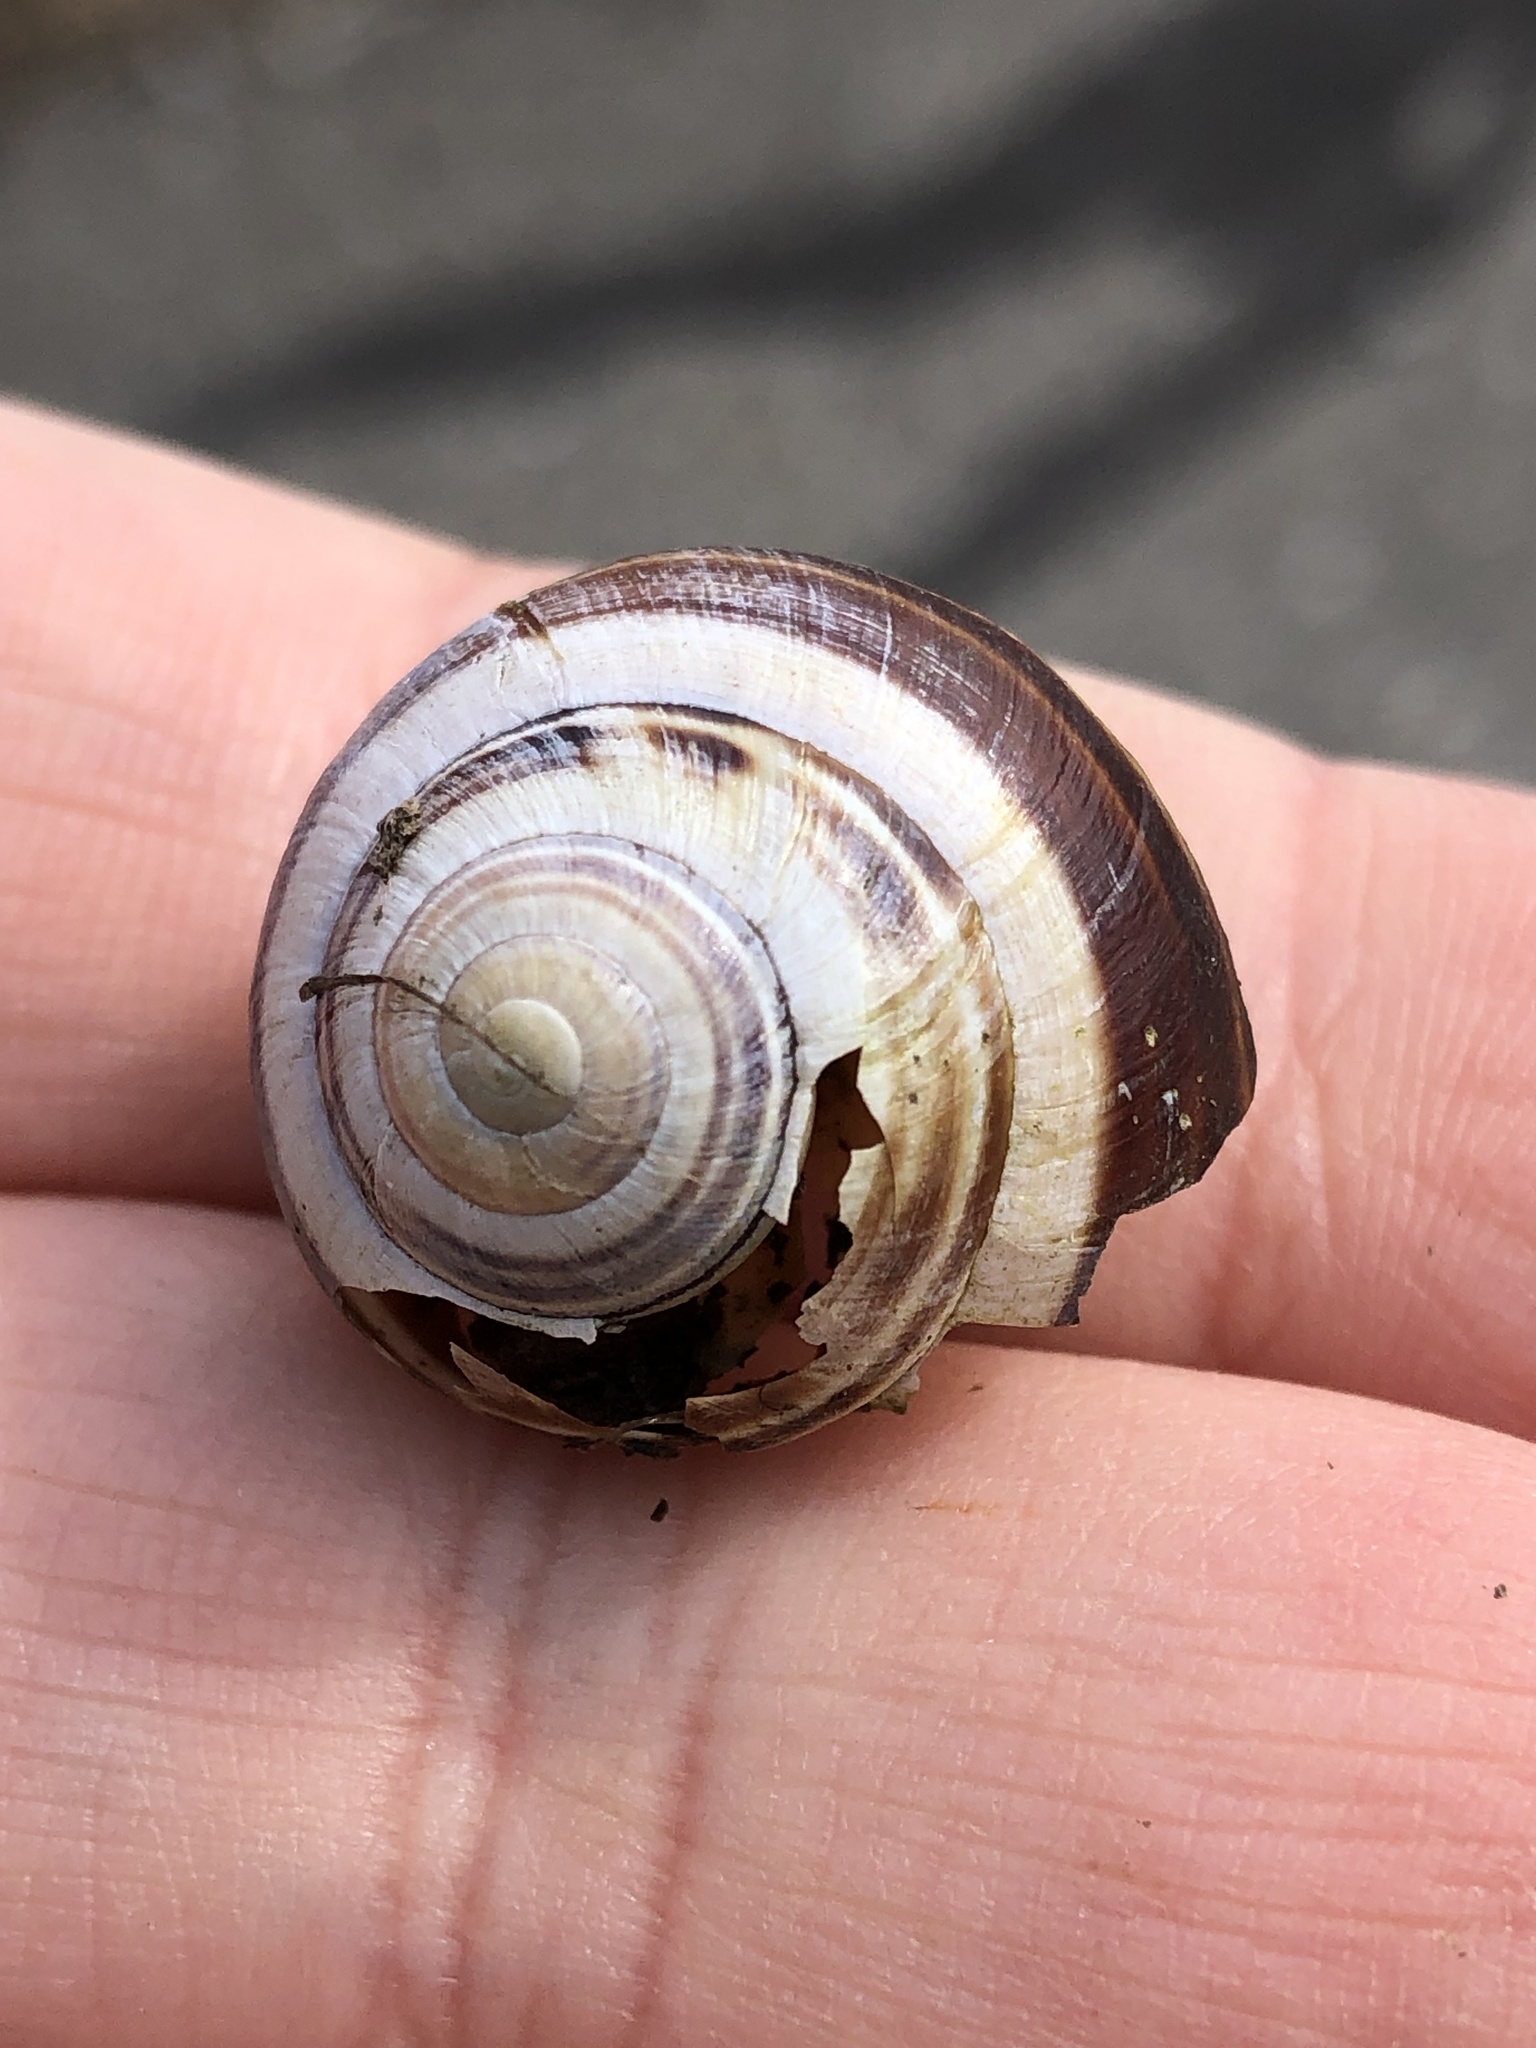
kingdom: Animalia
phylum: Mollusca
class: Gastropoda
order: Stylommatophora
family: Helicidae
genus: Cepaea
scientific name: Cepaea nemoralis
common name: Grovesnail
